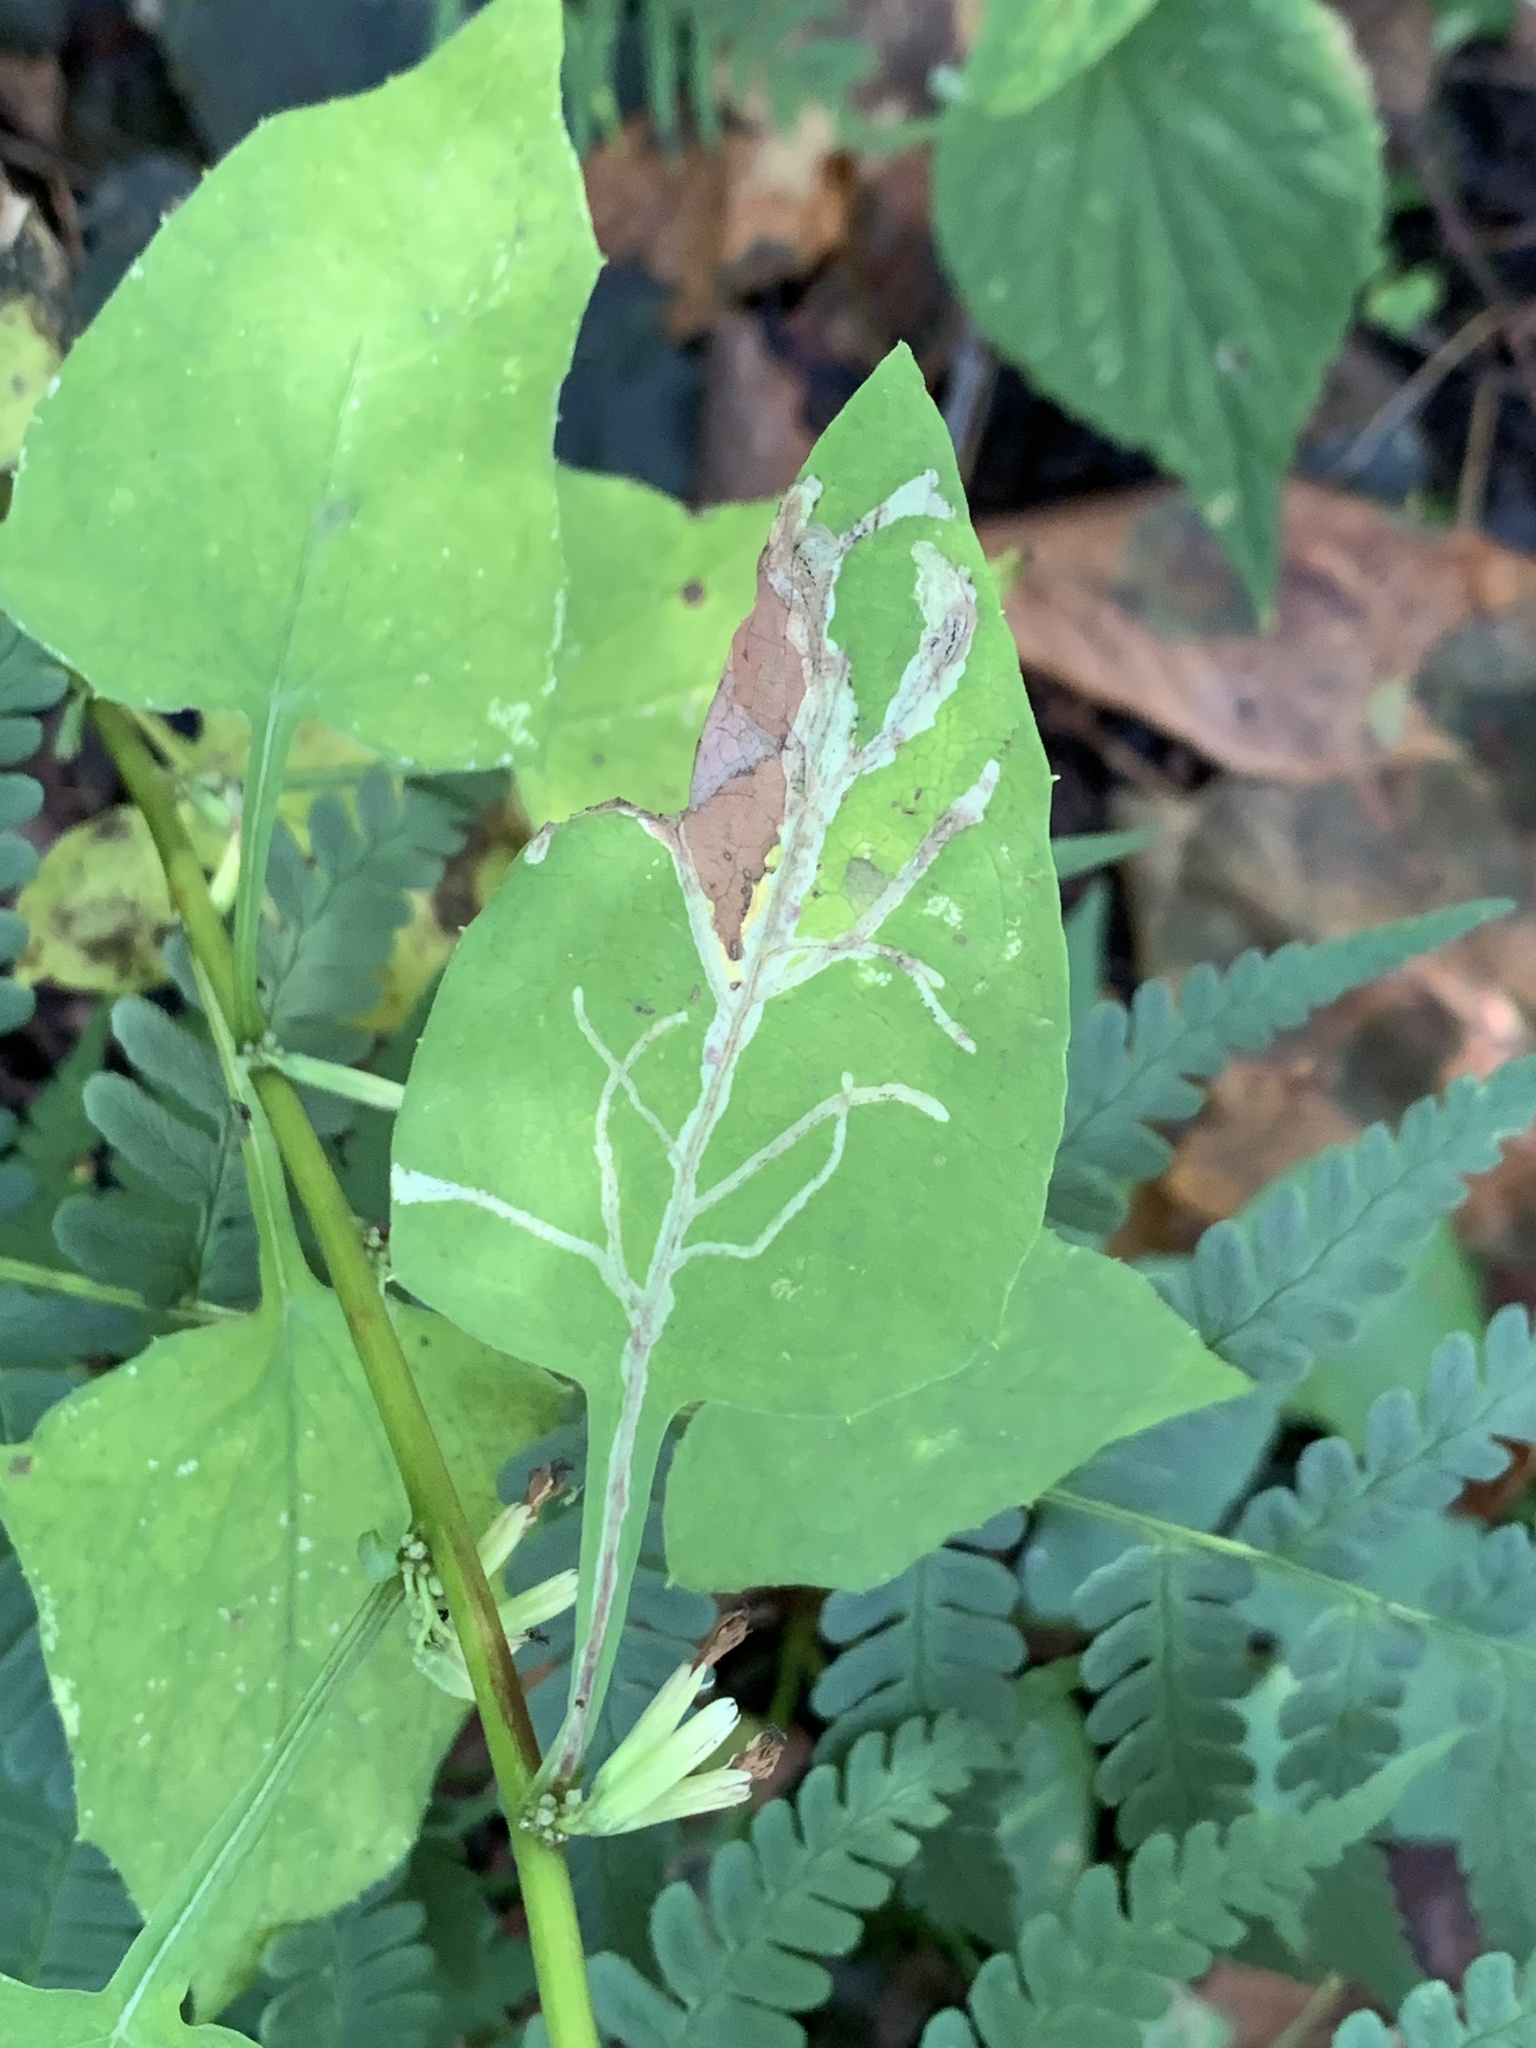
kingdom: Animalia
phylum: Arthropoda
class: Insecta
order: Diptera
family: Agromyzidae
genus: Ophiomyia
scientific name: Ophiomyia congregata
